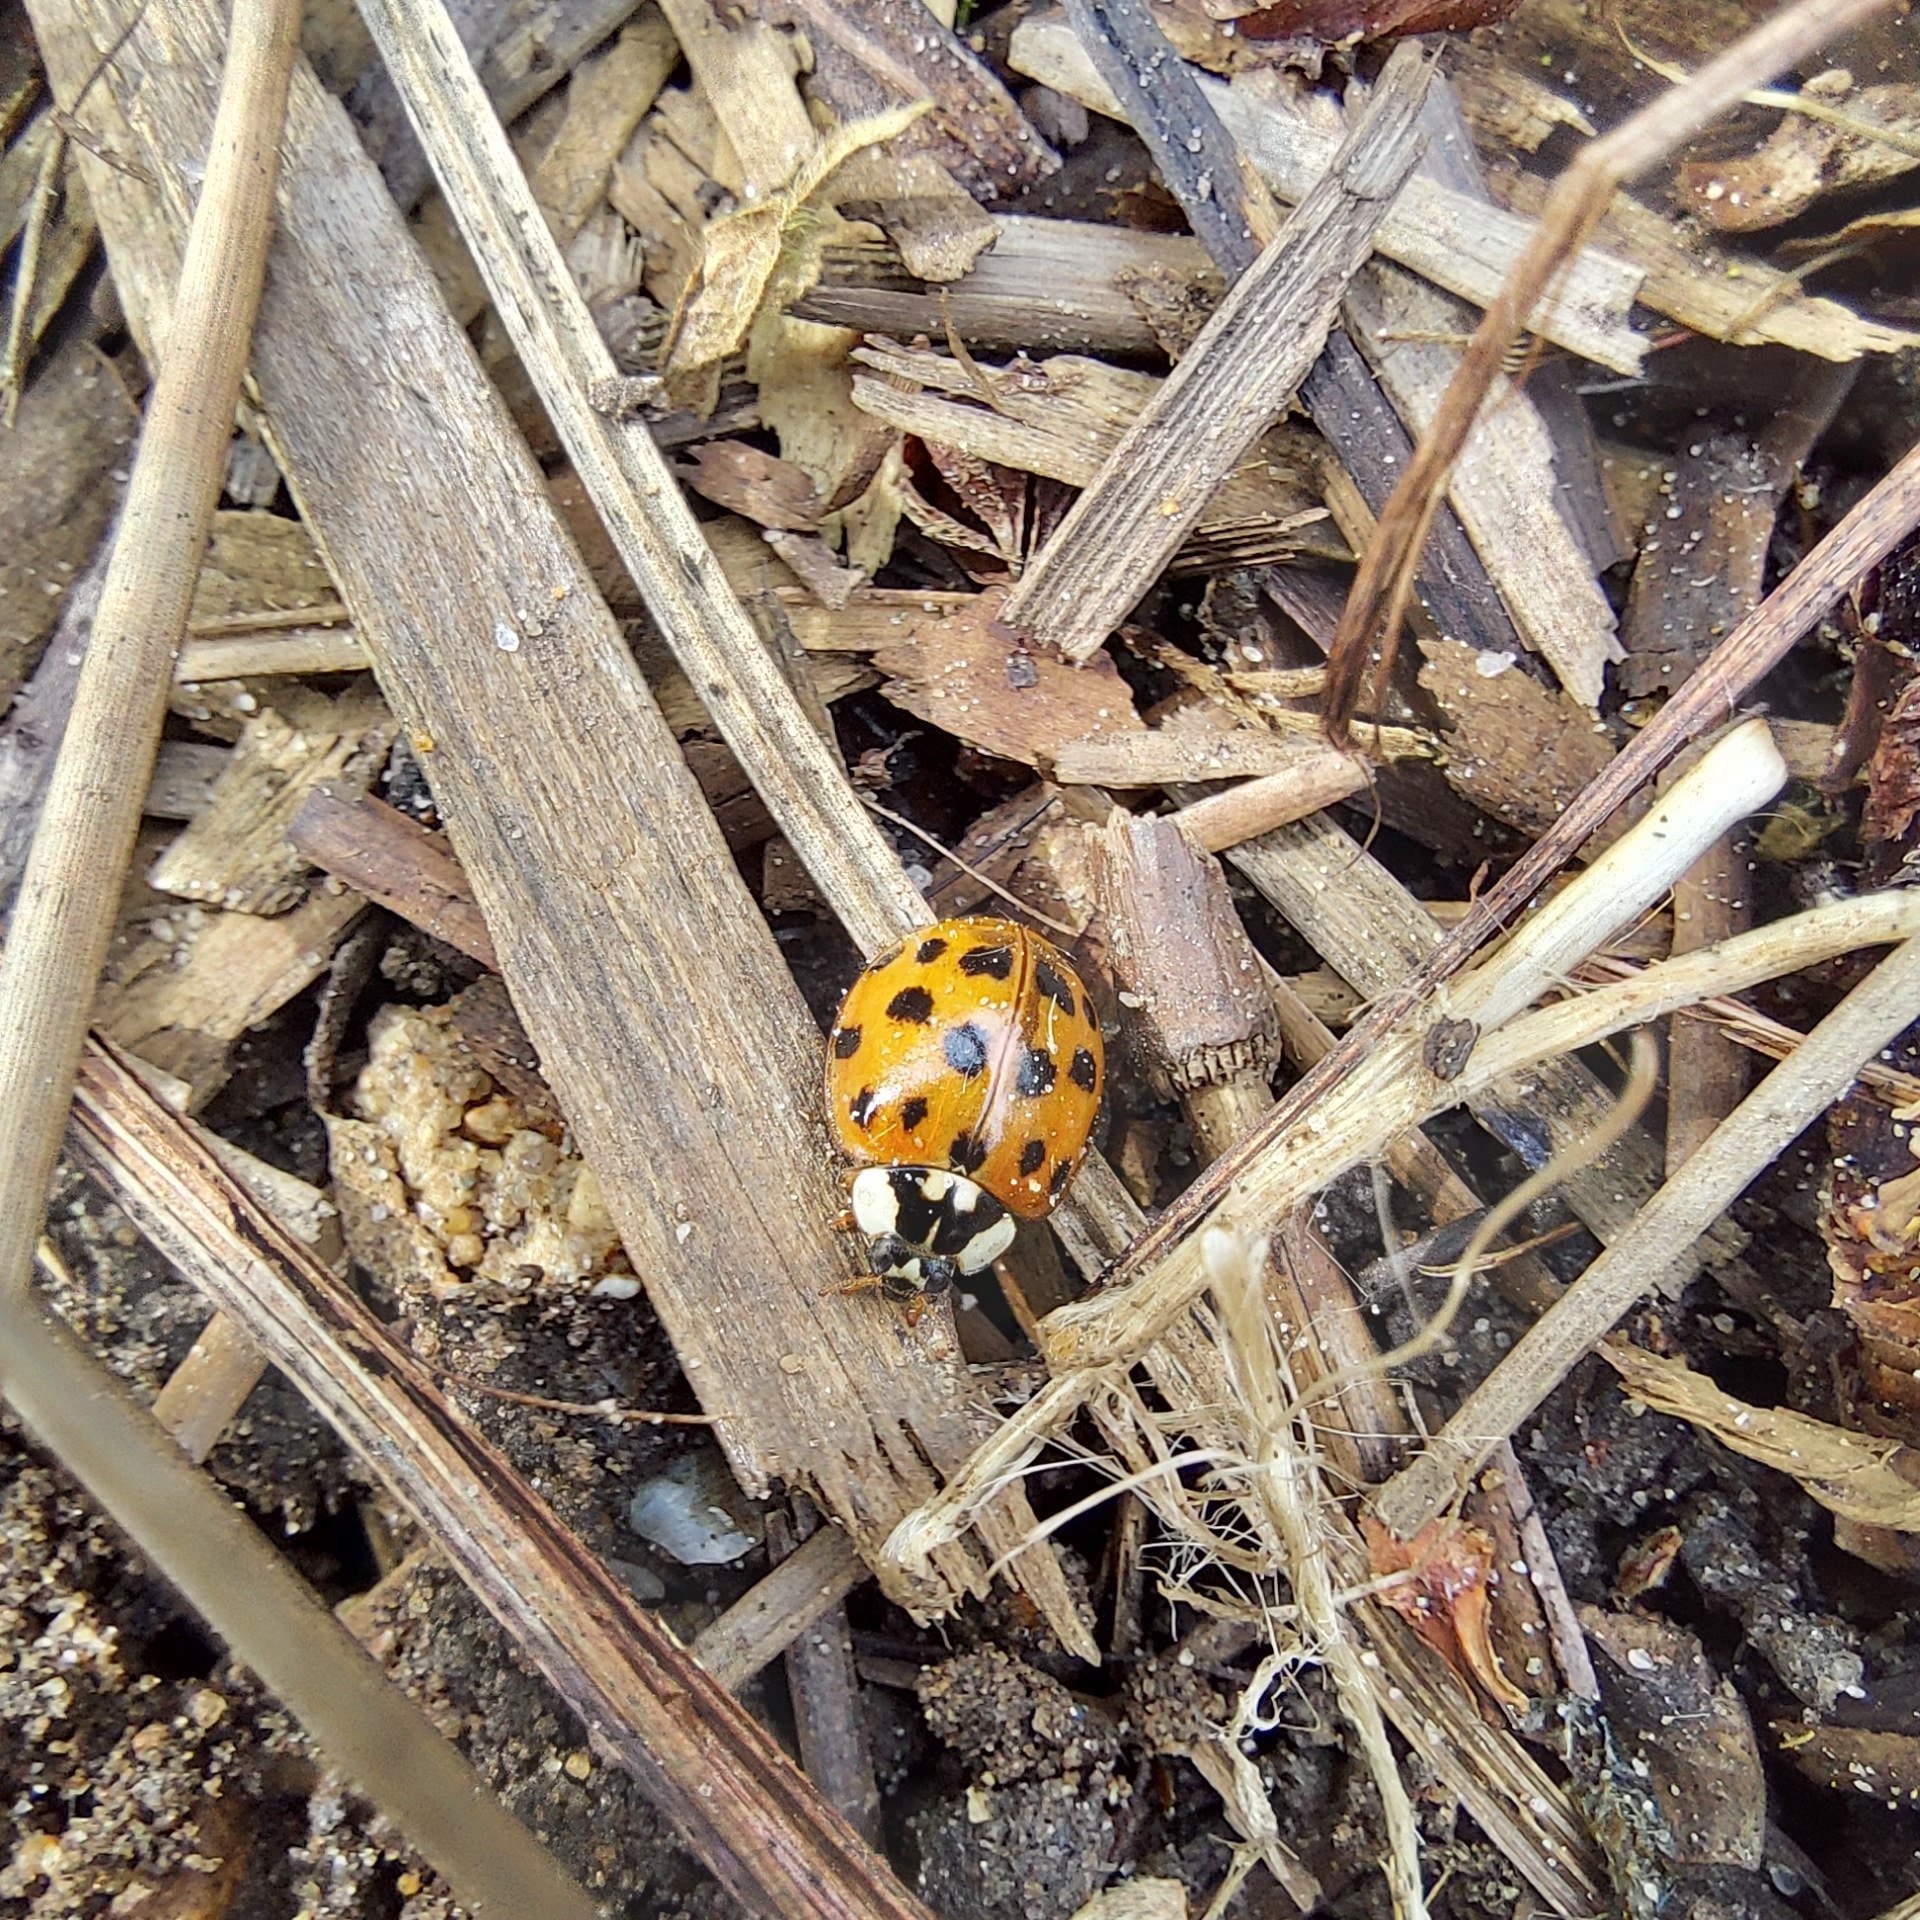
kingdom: Animalia
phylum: Arthropoda
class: Insecta
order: Coleoptera
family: Coccinellidae
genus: Harmonia
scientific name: Harmonia axyridis
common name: Harlequin ladybird
